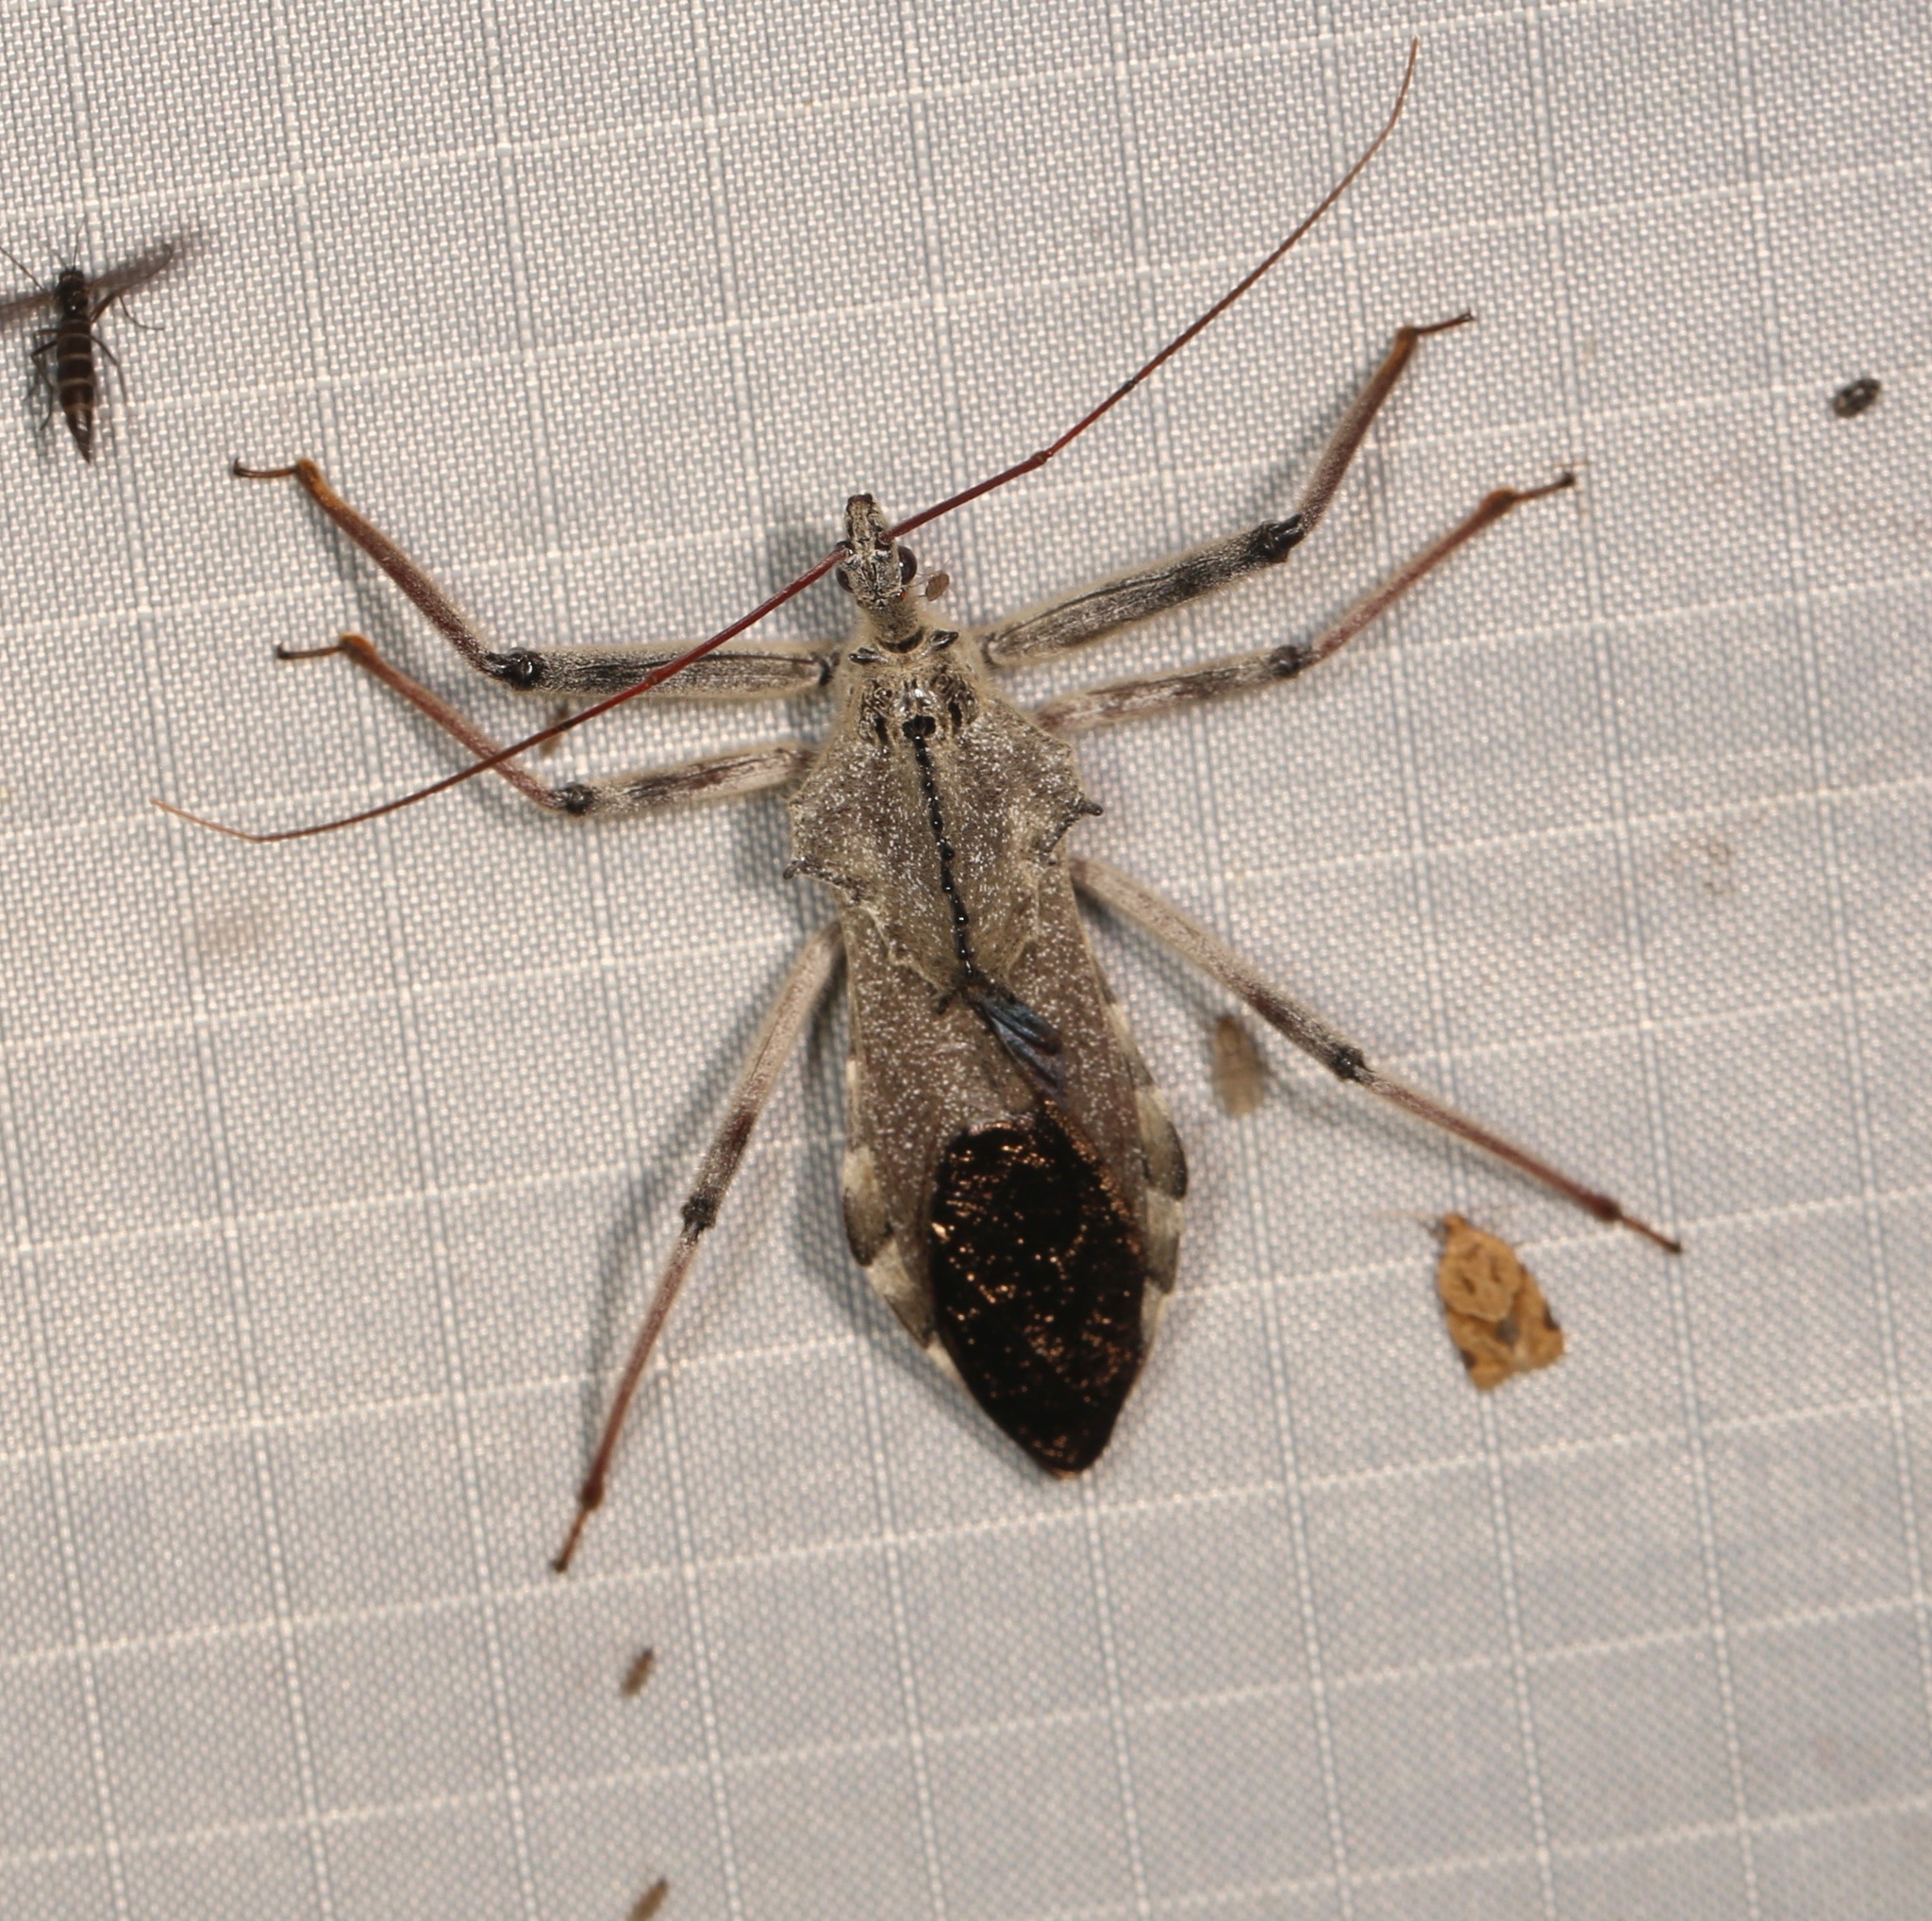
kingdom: Animalia
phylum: Arthropoda
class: Insecta
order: Hemiptera
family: Reduviidae
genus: Arilus
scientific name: Arilus cristatus
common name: North american wheel bug
